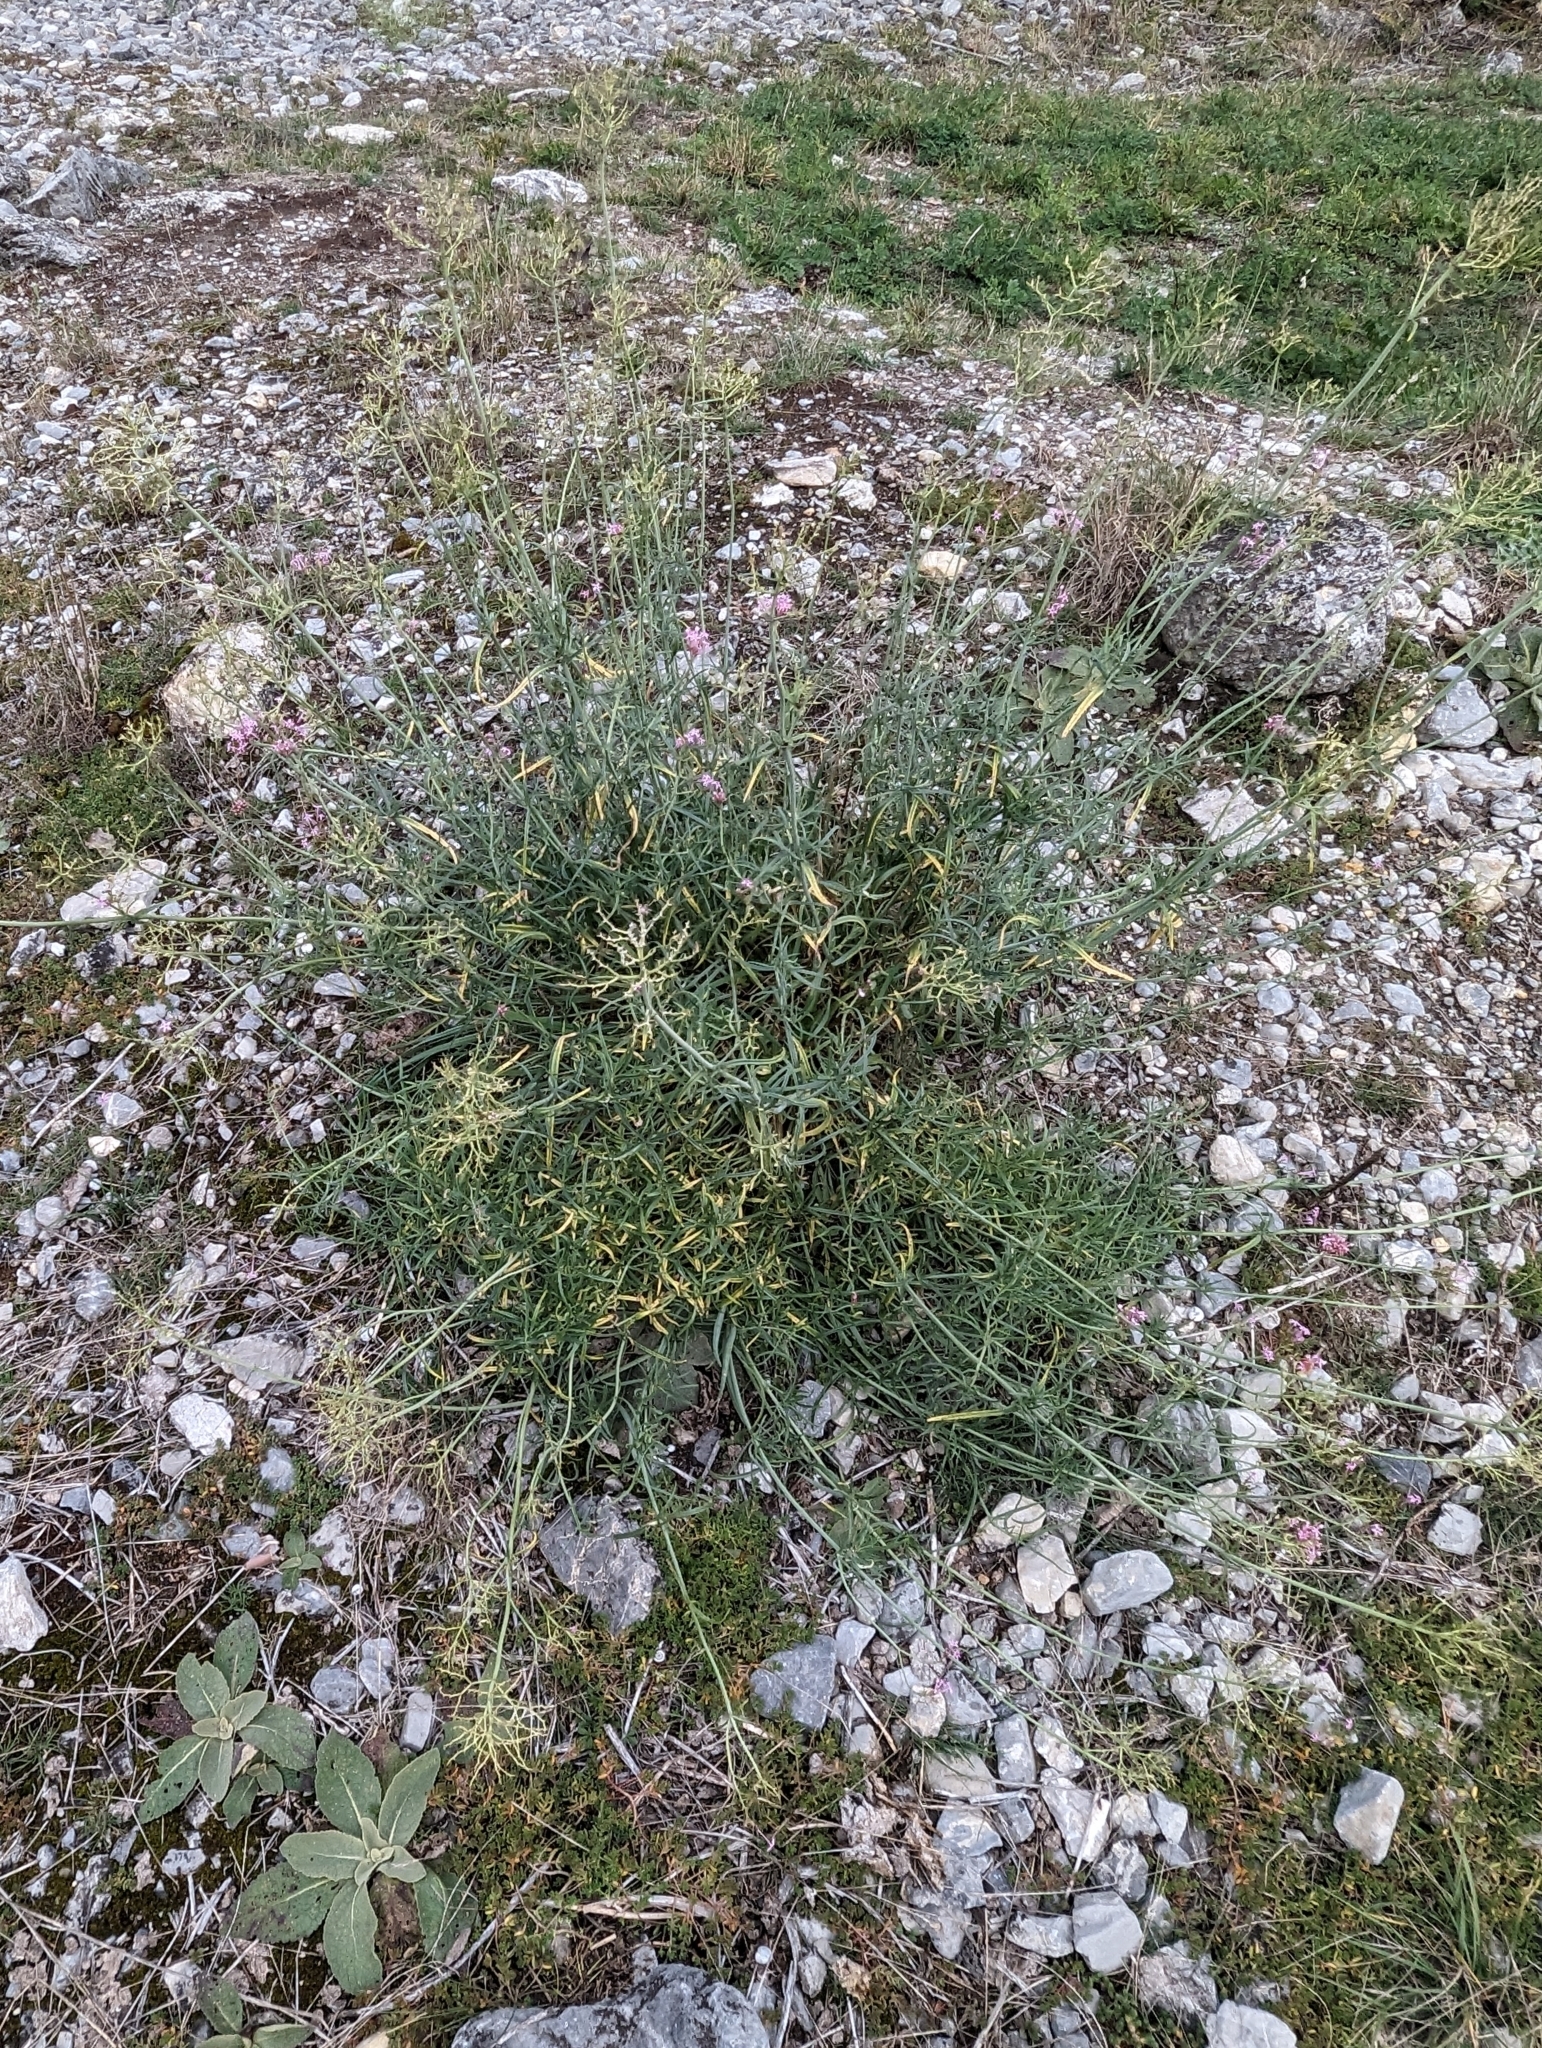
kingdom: Plantae
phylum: Tracheophyta
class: Magnoliopsida
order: Dipsacales
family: Caprifoliaceae
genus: Centranthus
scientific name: Centranthus angustifolius
